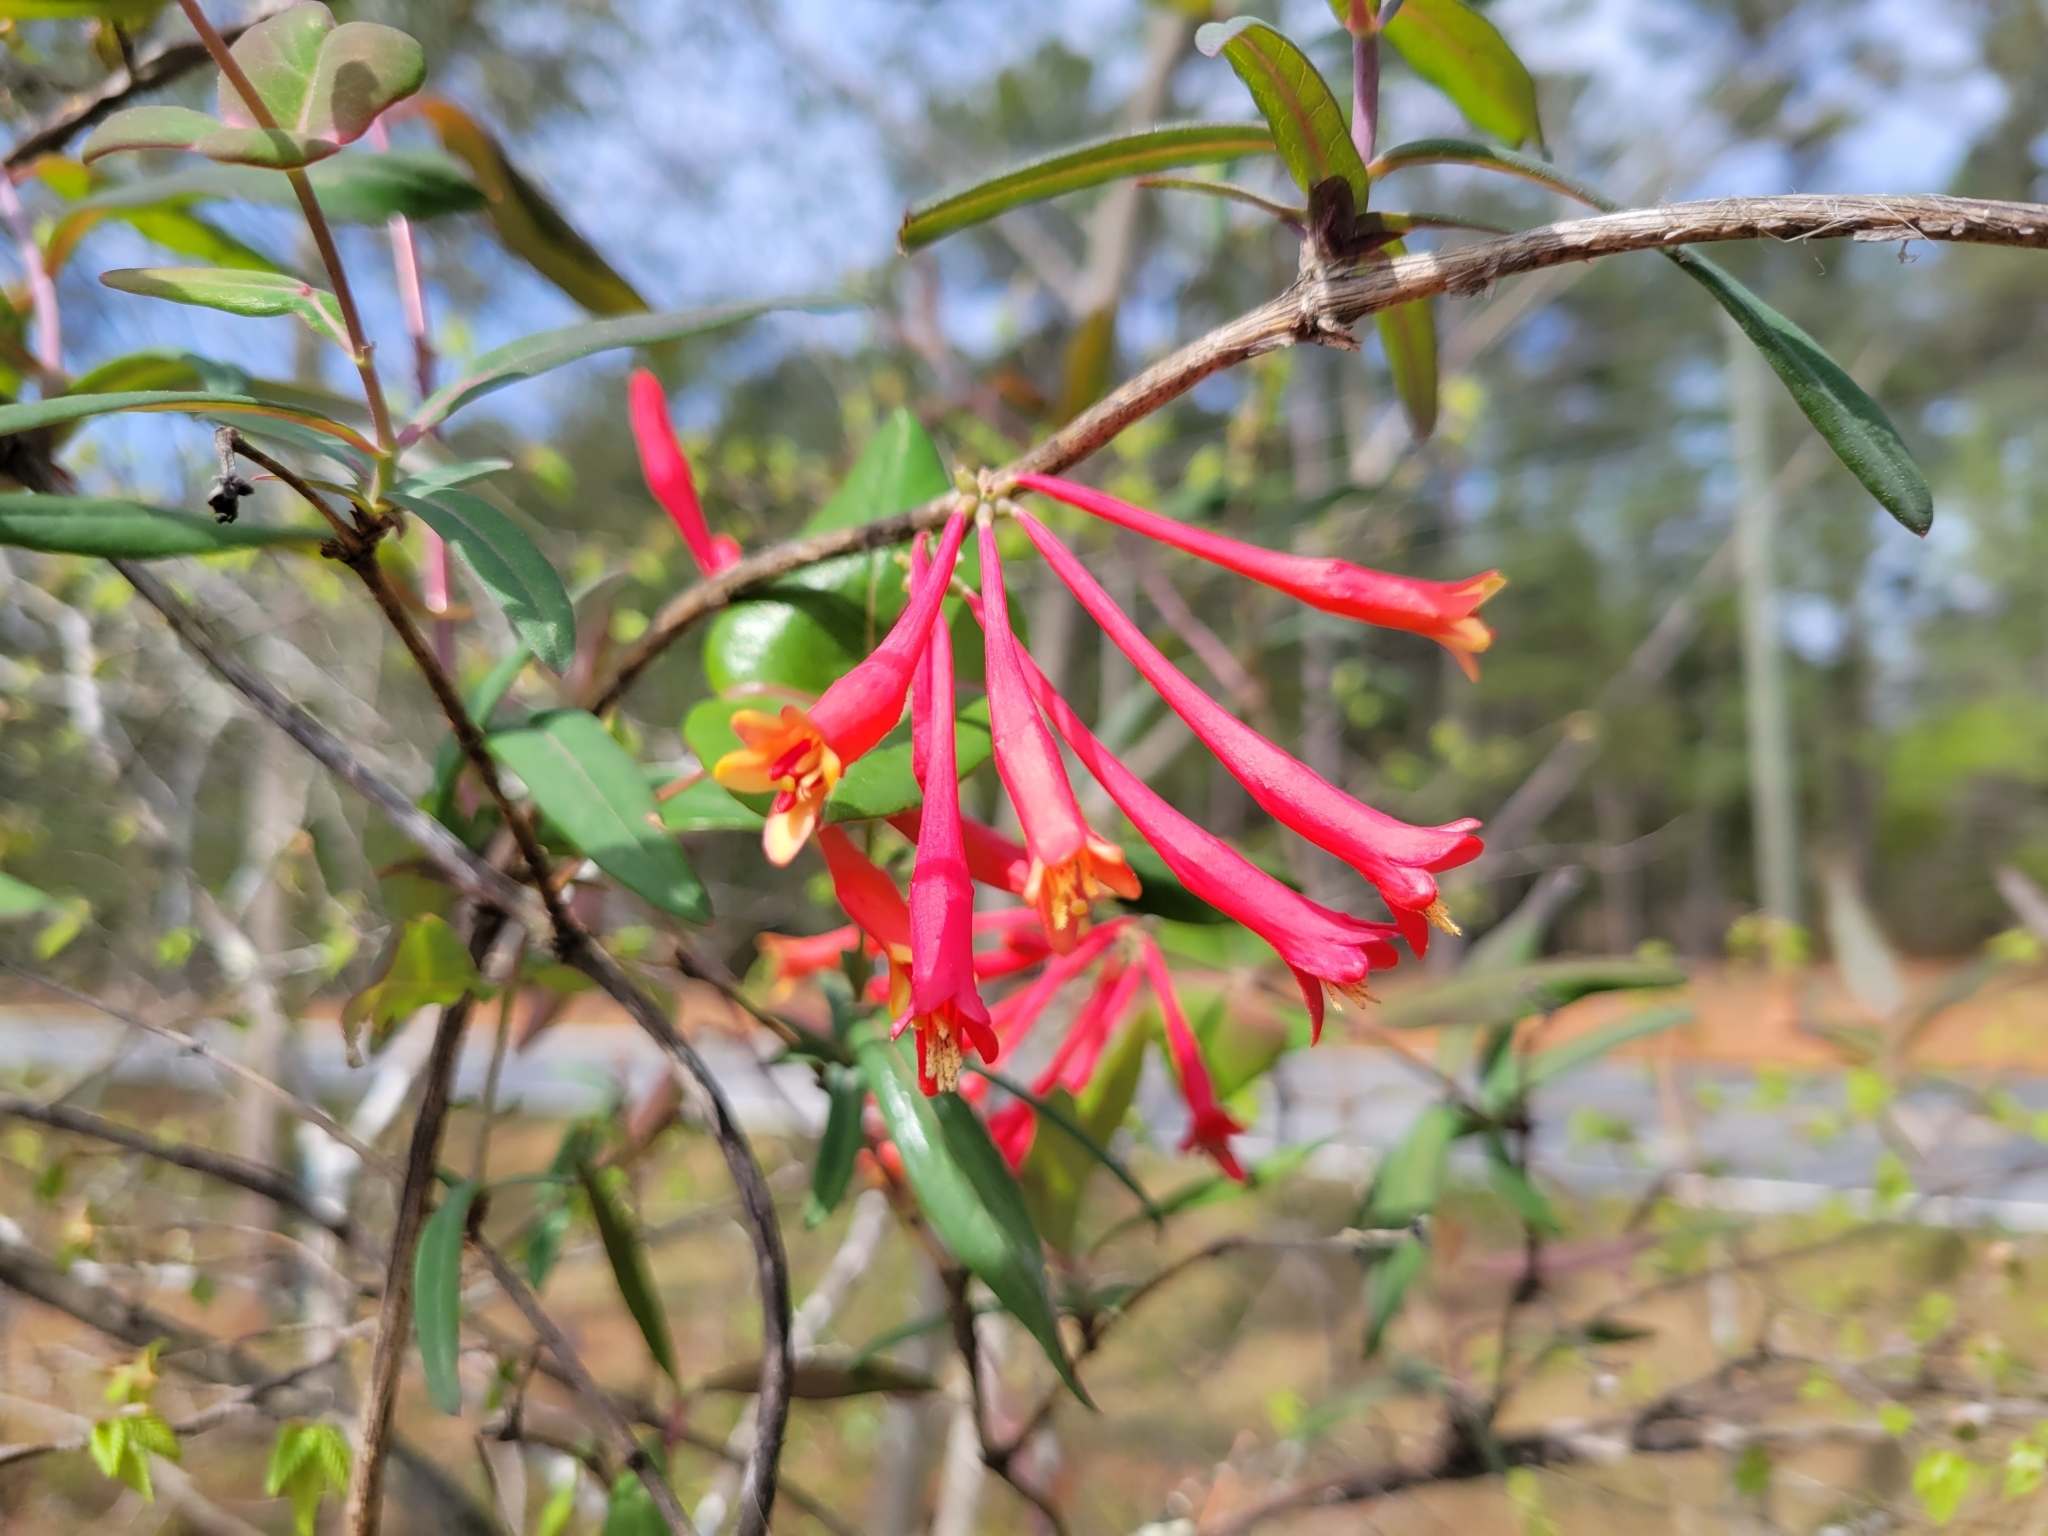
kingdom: Plantae
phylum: Tracheophyta
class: Magnoliopsida
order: Dipsacales
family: Caprifoliaceae
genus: Lonicera
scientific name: Lonicera sempervirens
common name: Coral honeysuckle
